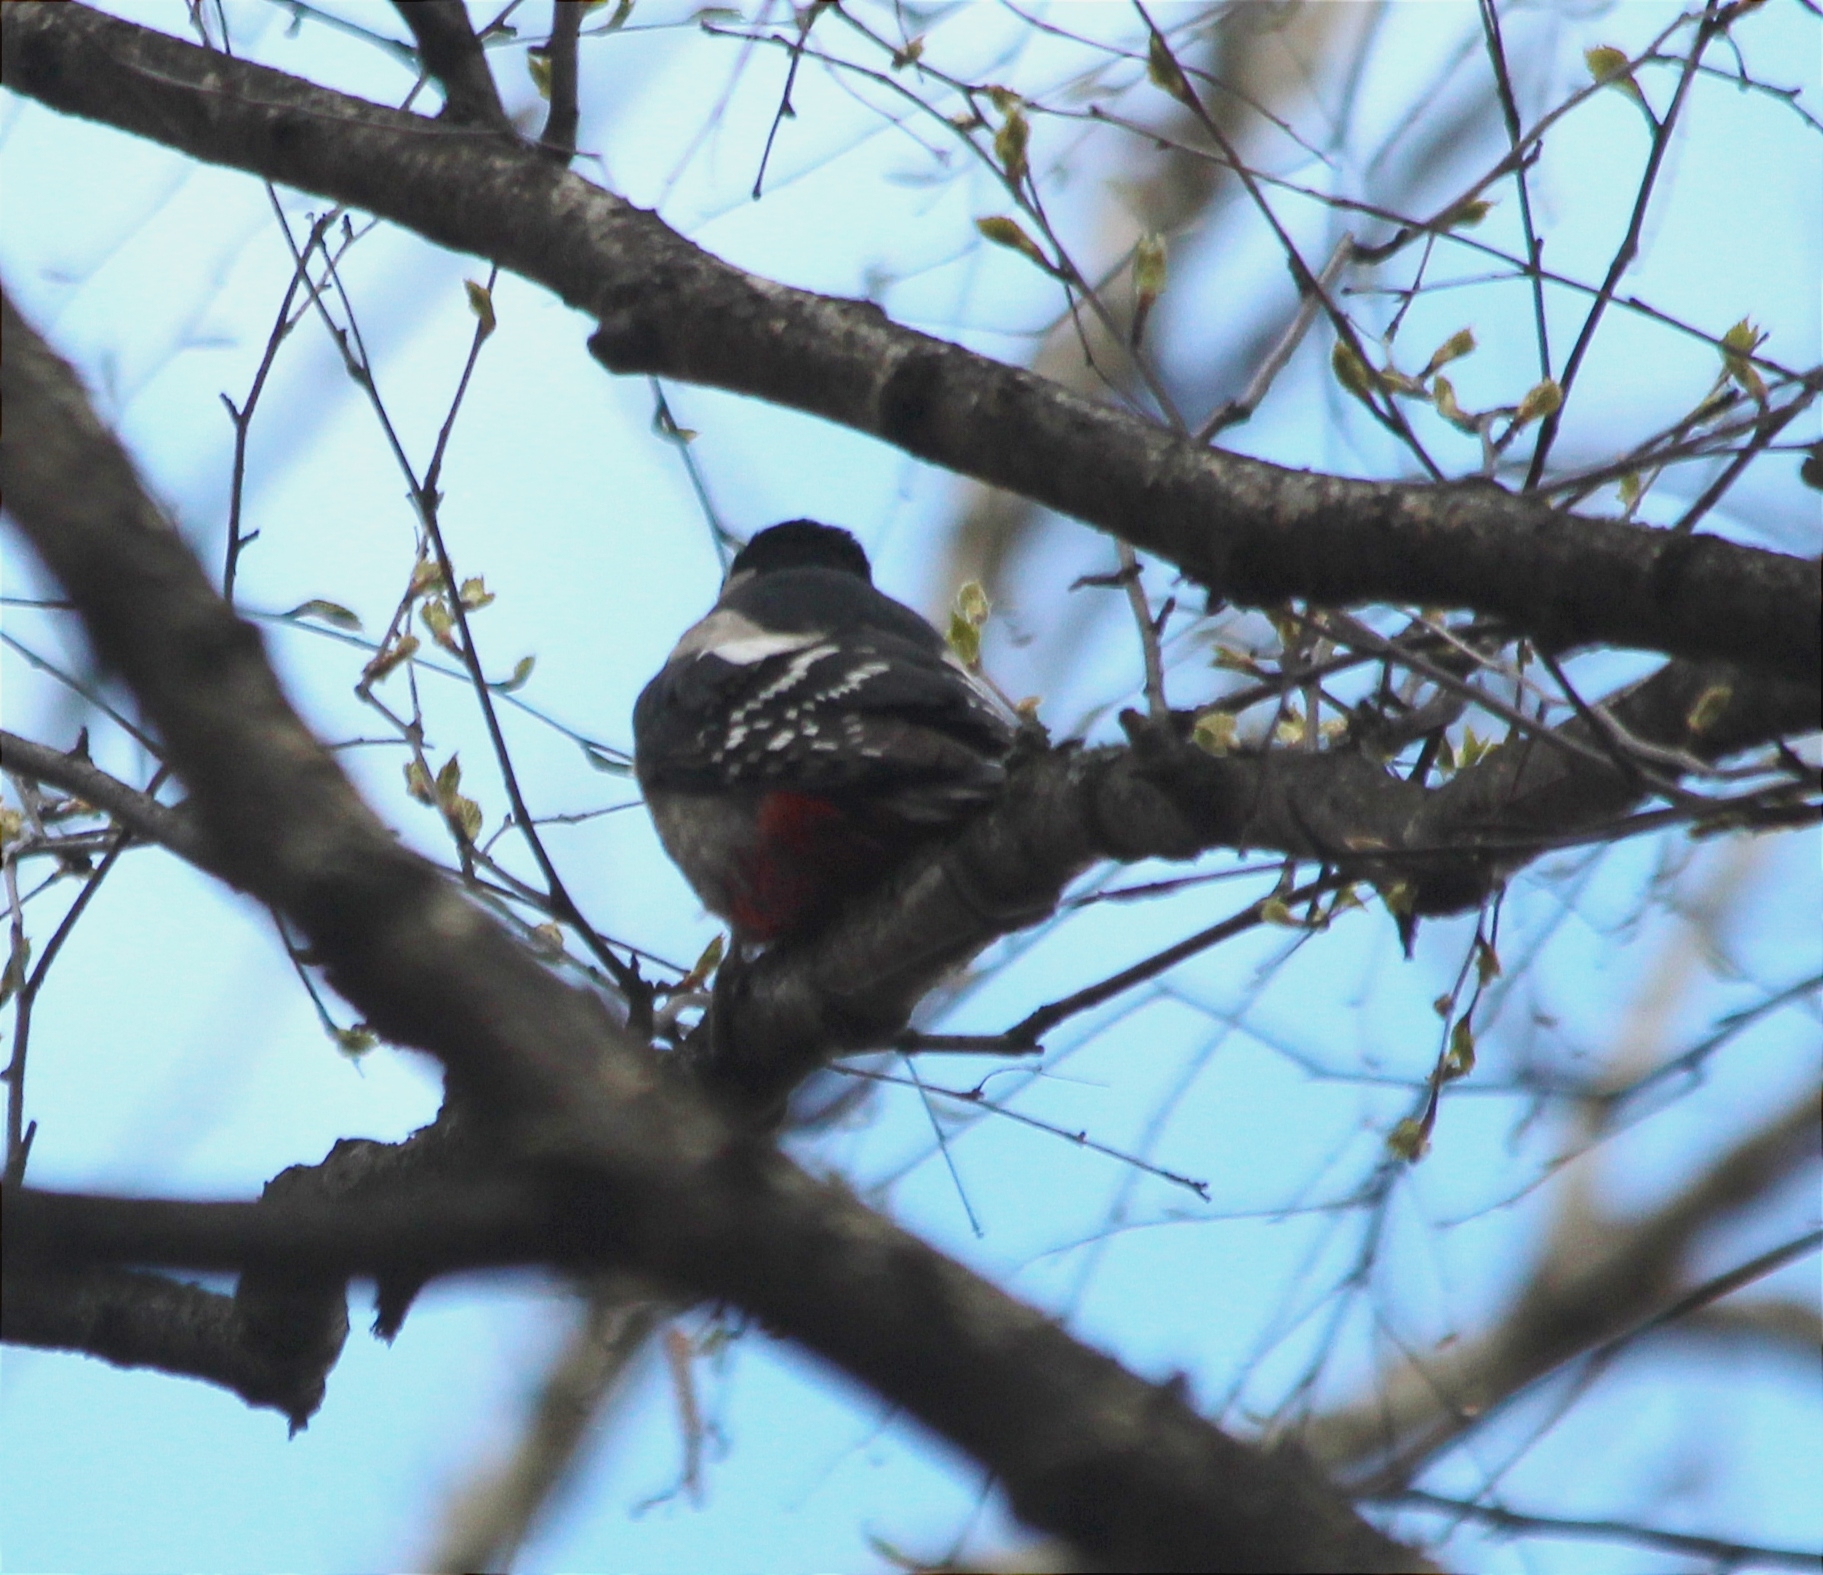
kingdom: Animalia
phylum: Chordata
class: Aves
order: Piciformes
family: Picidae
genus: Dendrocopos
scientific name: Dendrocopos major
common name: Great spotted woodpecker
